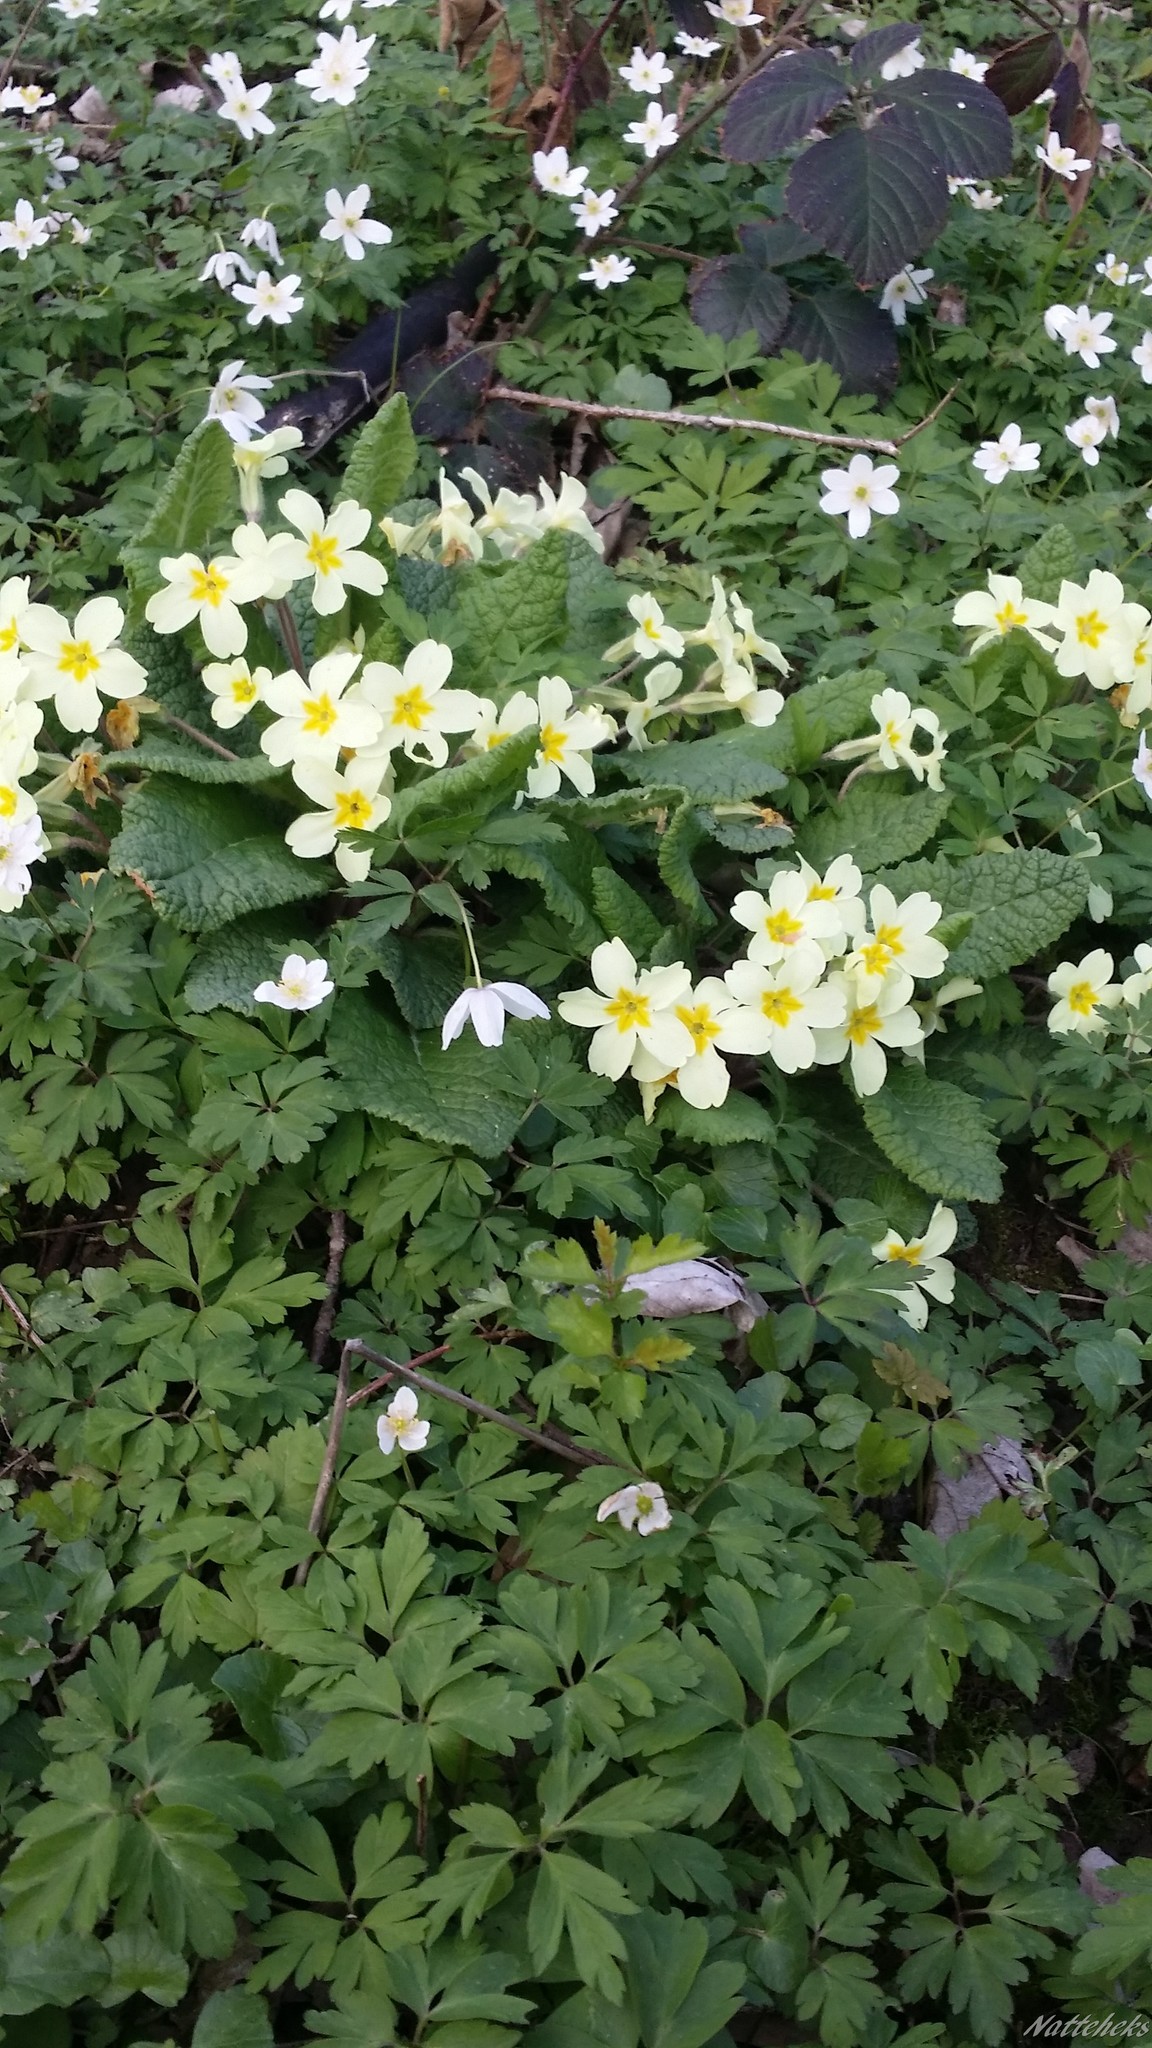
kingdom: Plantae
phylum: Tracheophyta
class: Magnoliopsida
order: Ericales
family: Primulaceae
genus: Primula
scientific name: Primula vulgaris
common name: Primrose
